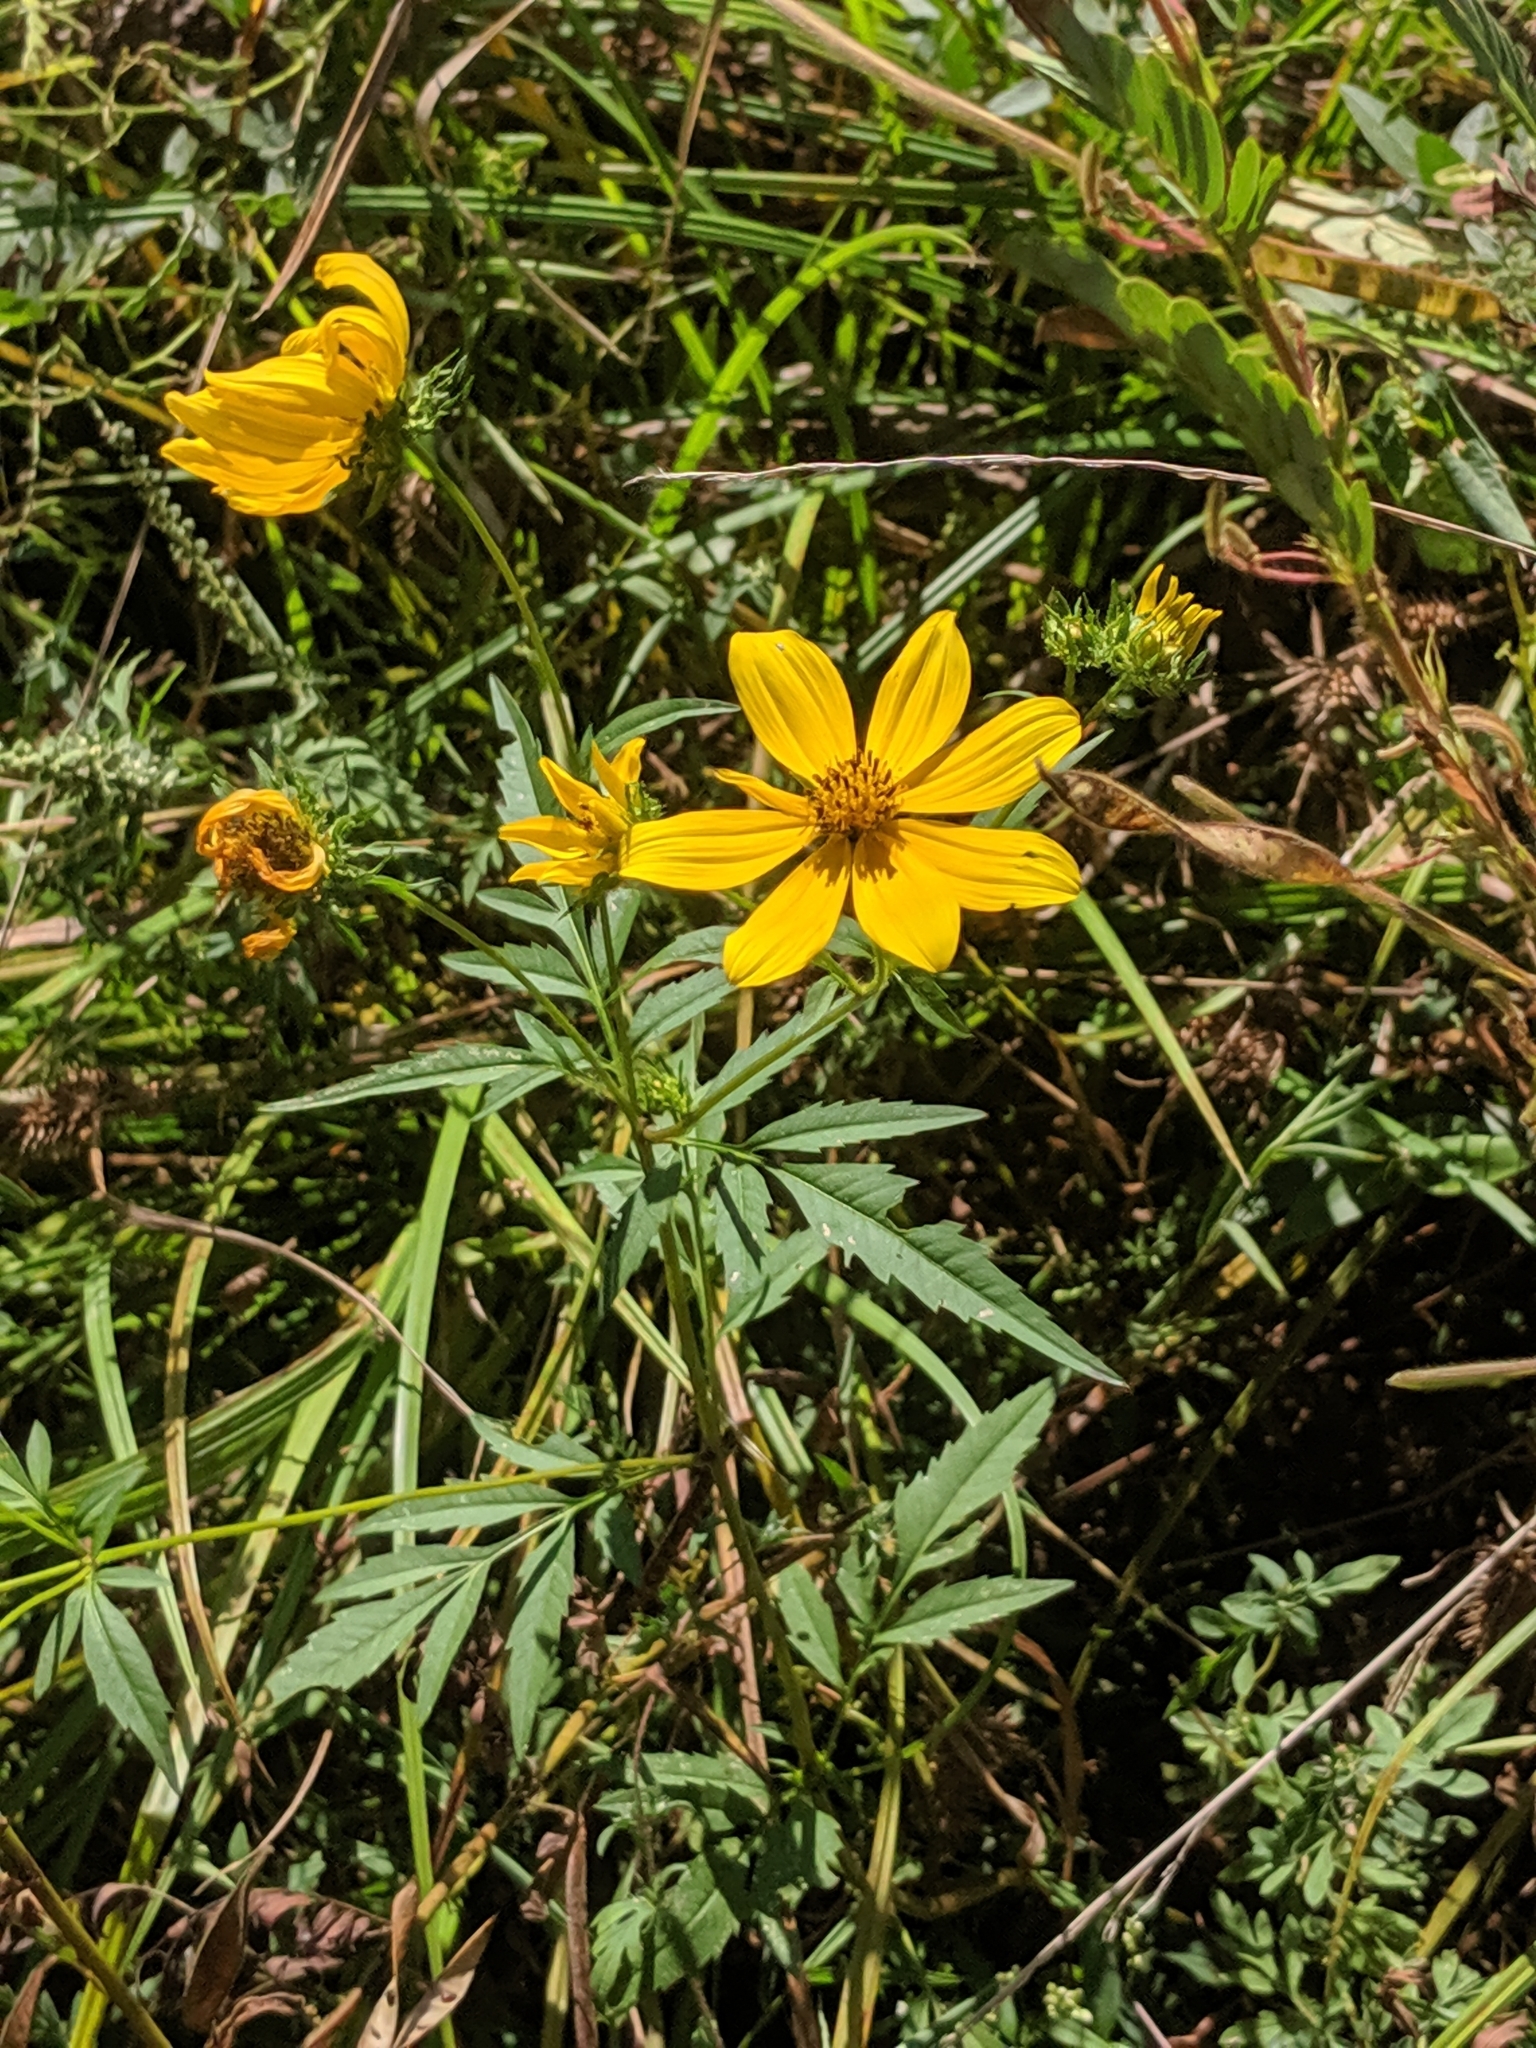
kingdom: Plantae
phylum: Tracheophyta
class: Magnoliopsida
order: Asterales
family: Asteraceae
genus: Bidens
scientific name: Bidens aristosa
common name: Western tickseed
